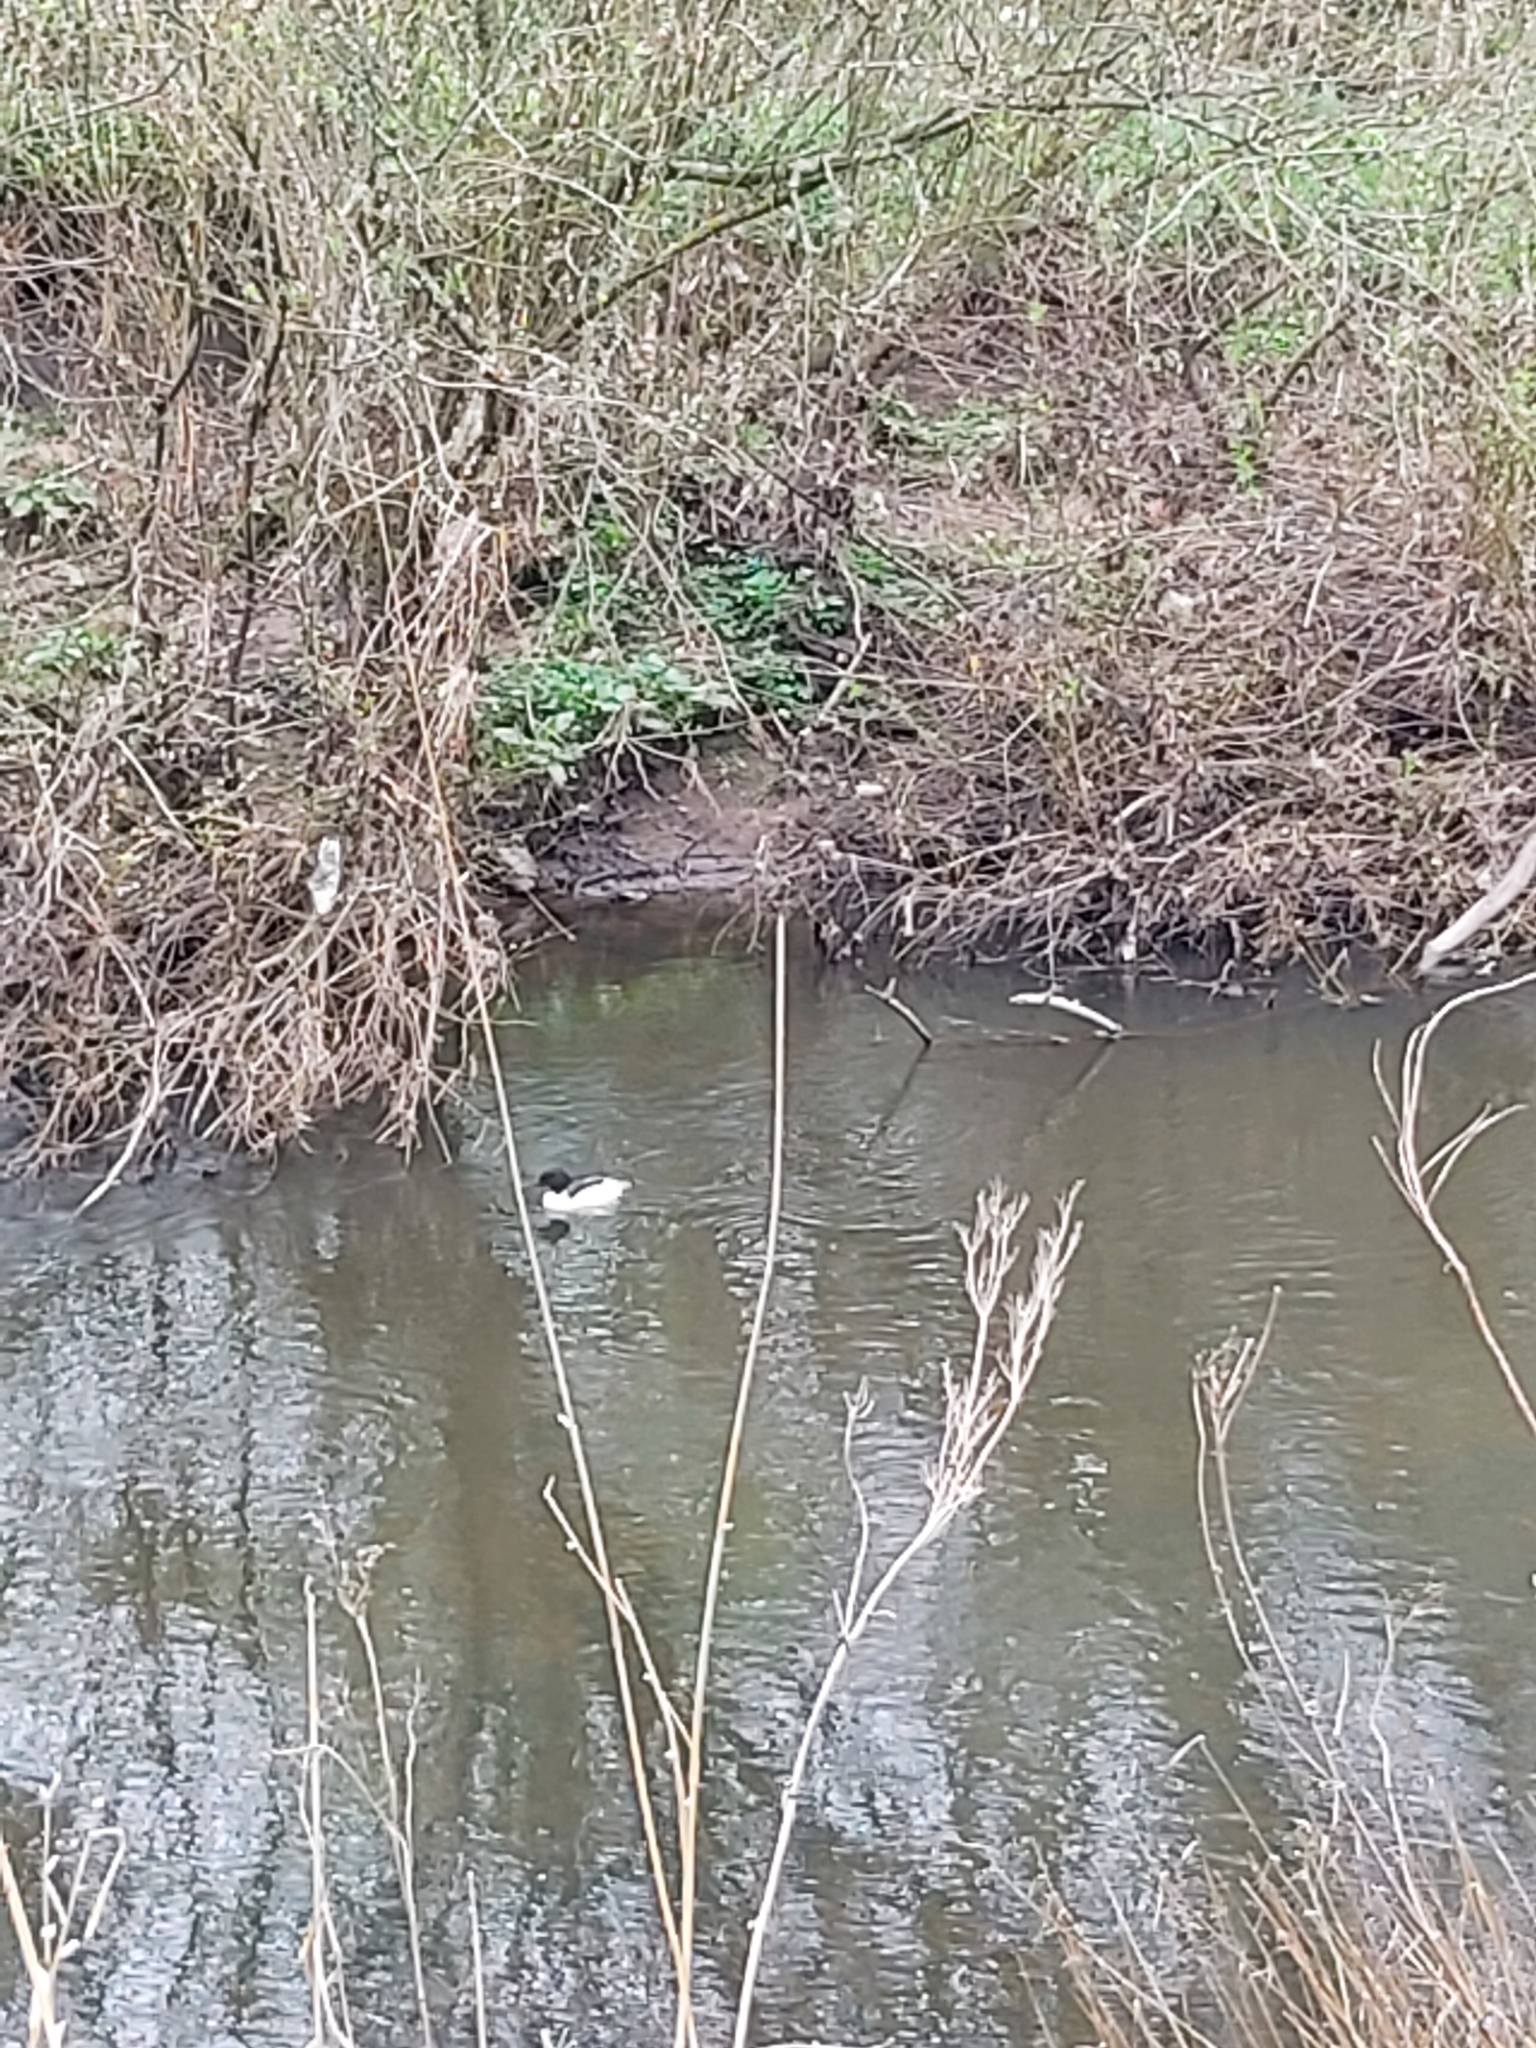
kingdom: Animalia
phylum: Chordata
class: Aves
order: Anseriformes
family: Anatidae
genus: Mergus
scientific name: Mergus merganser
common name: Common merganser
